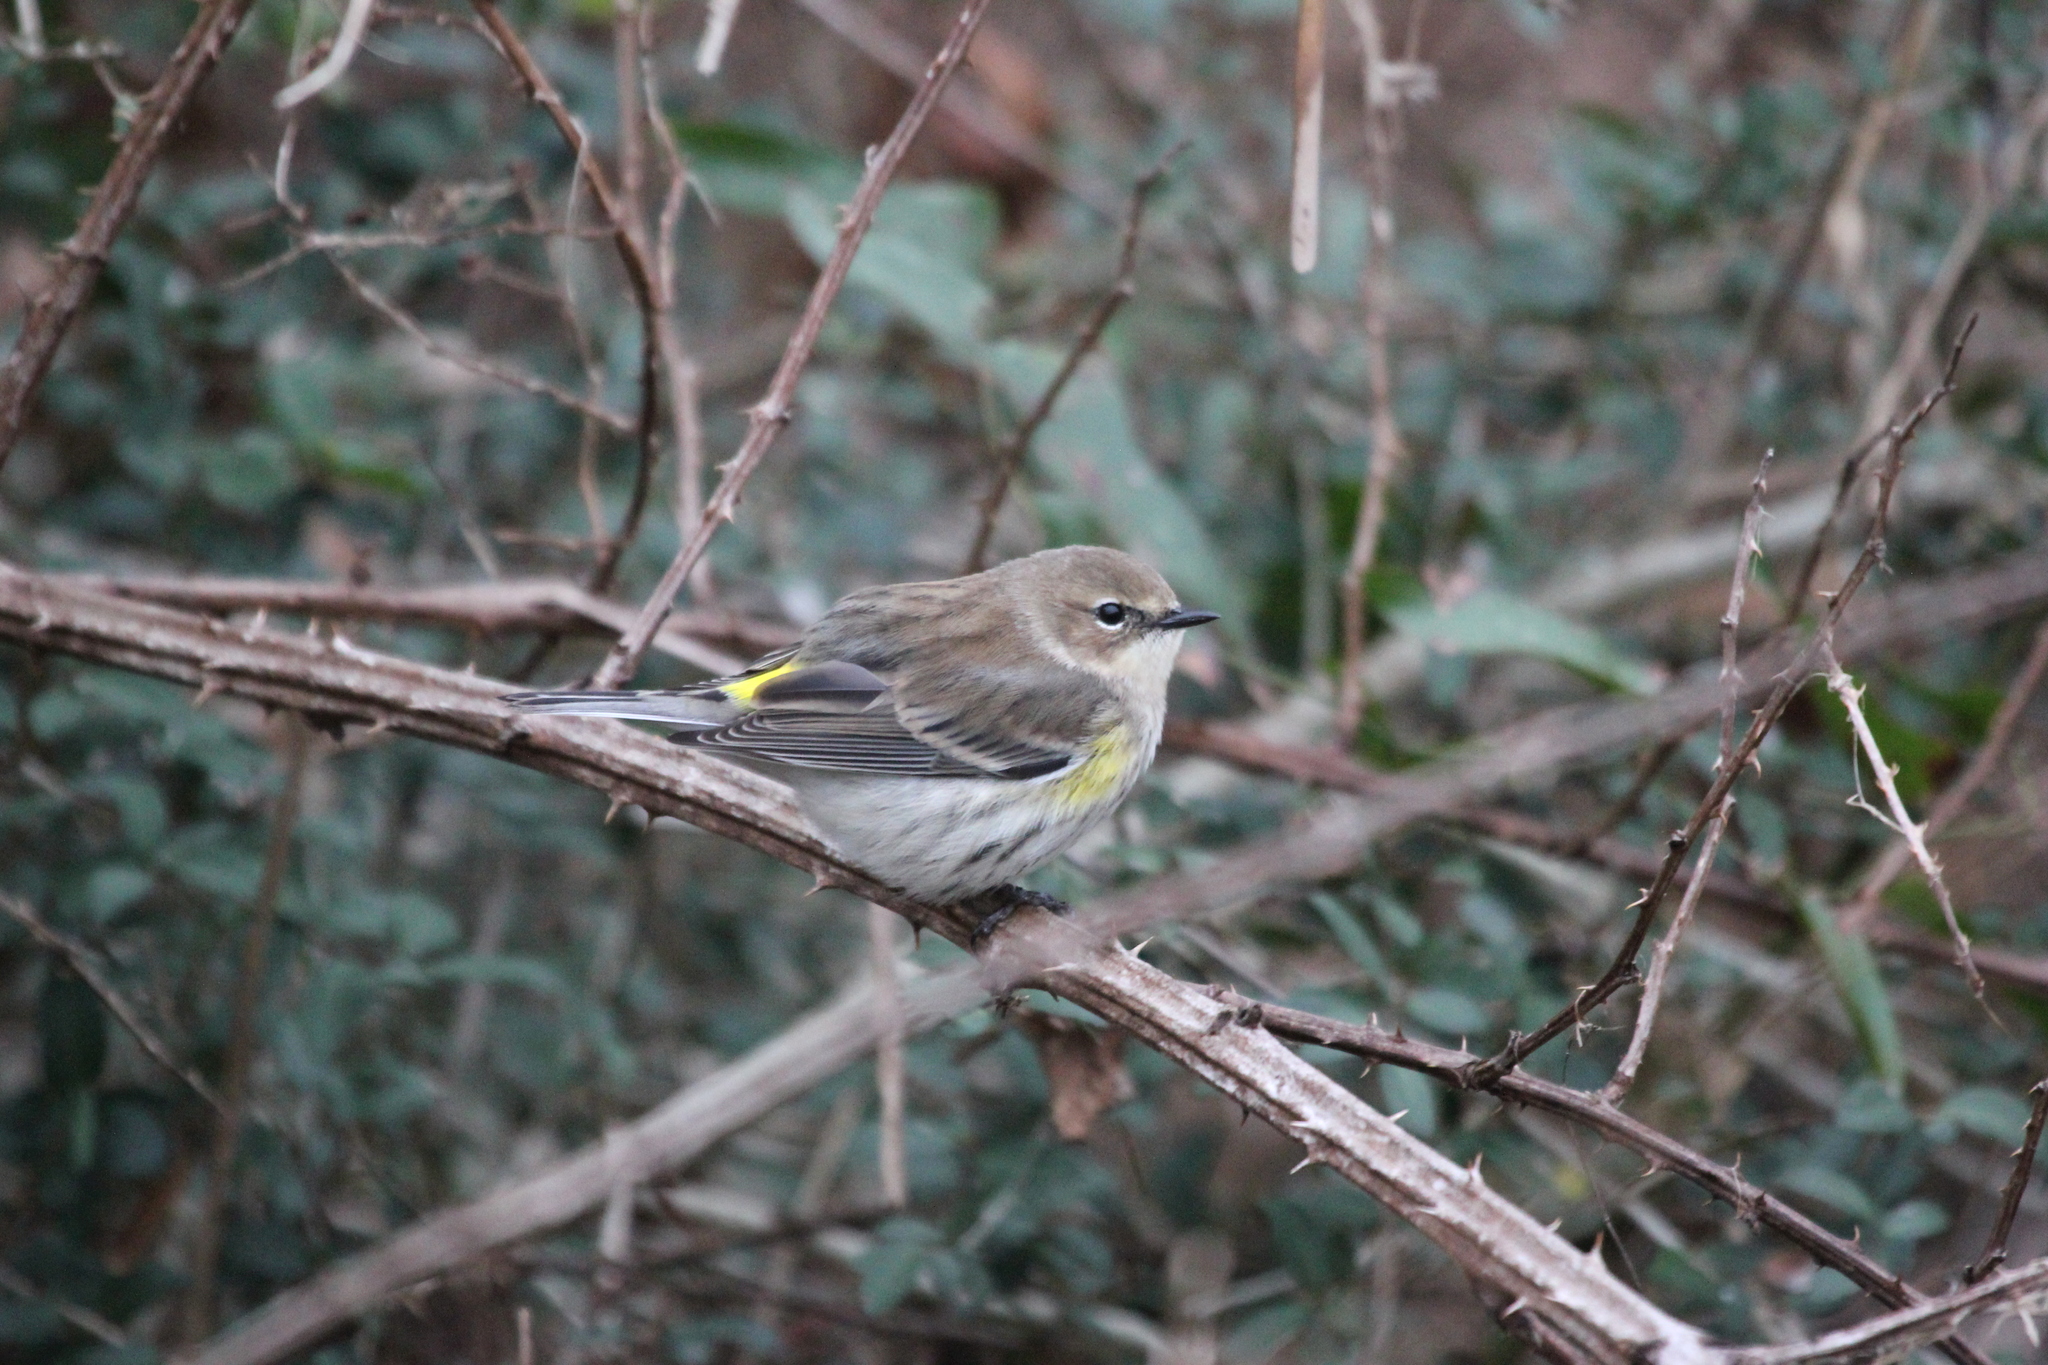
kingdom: Animalia
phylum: Chordata
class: Aves
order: Passeriformes
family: Parulidae
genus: Setophaga
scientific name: Setophaga coronata
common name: Myrtle warbler
